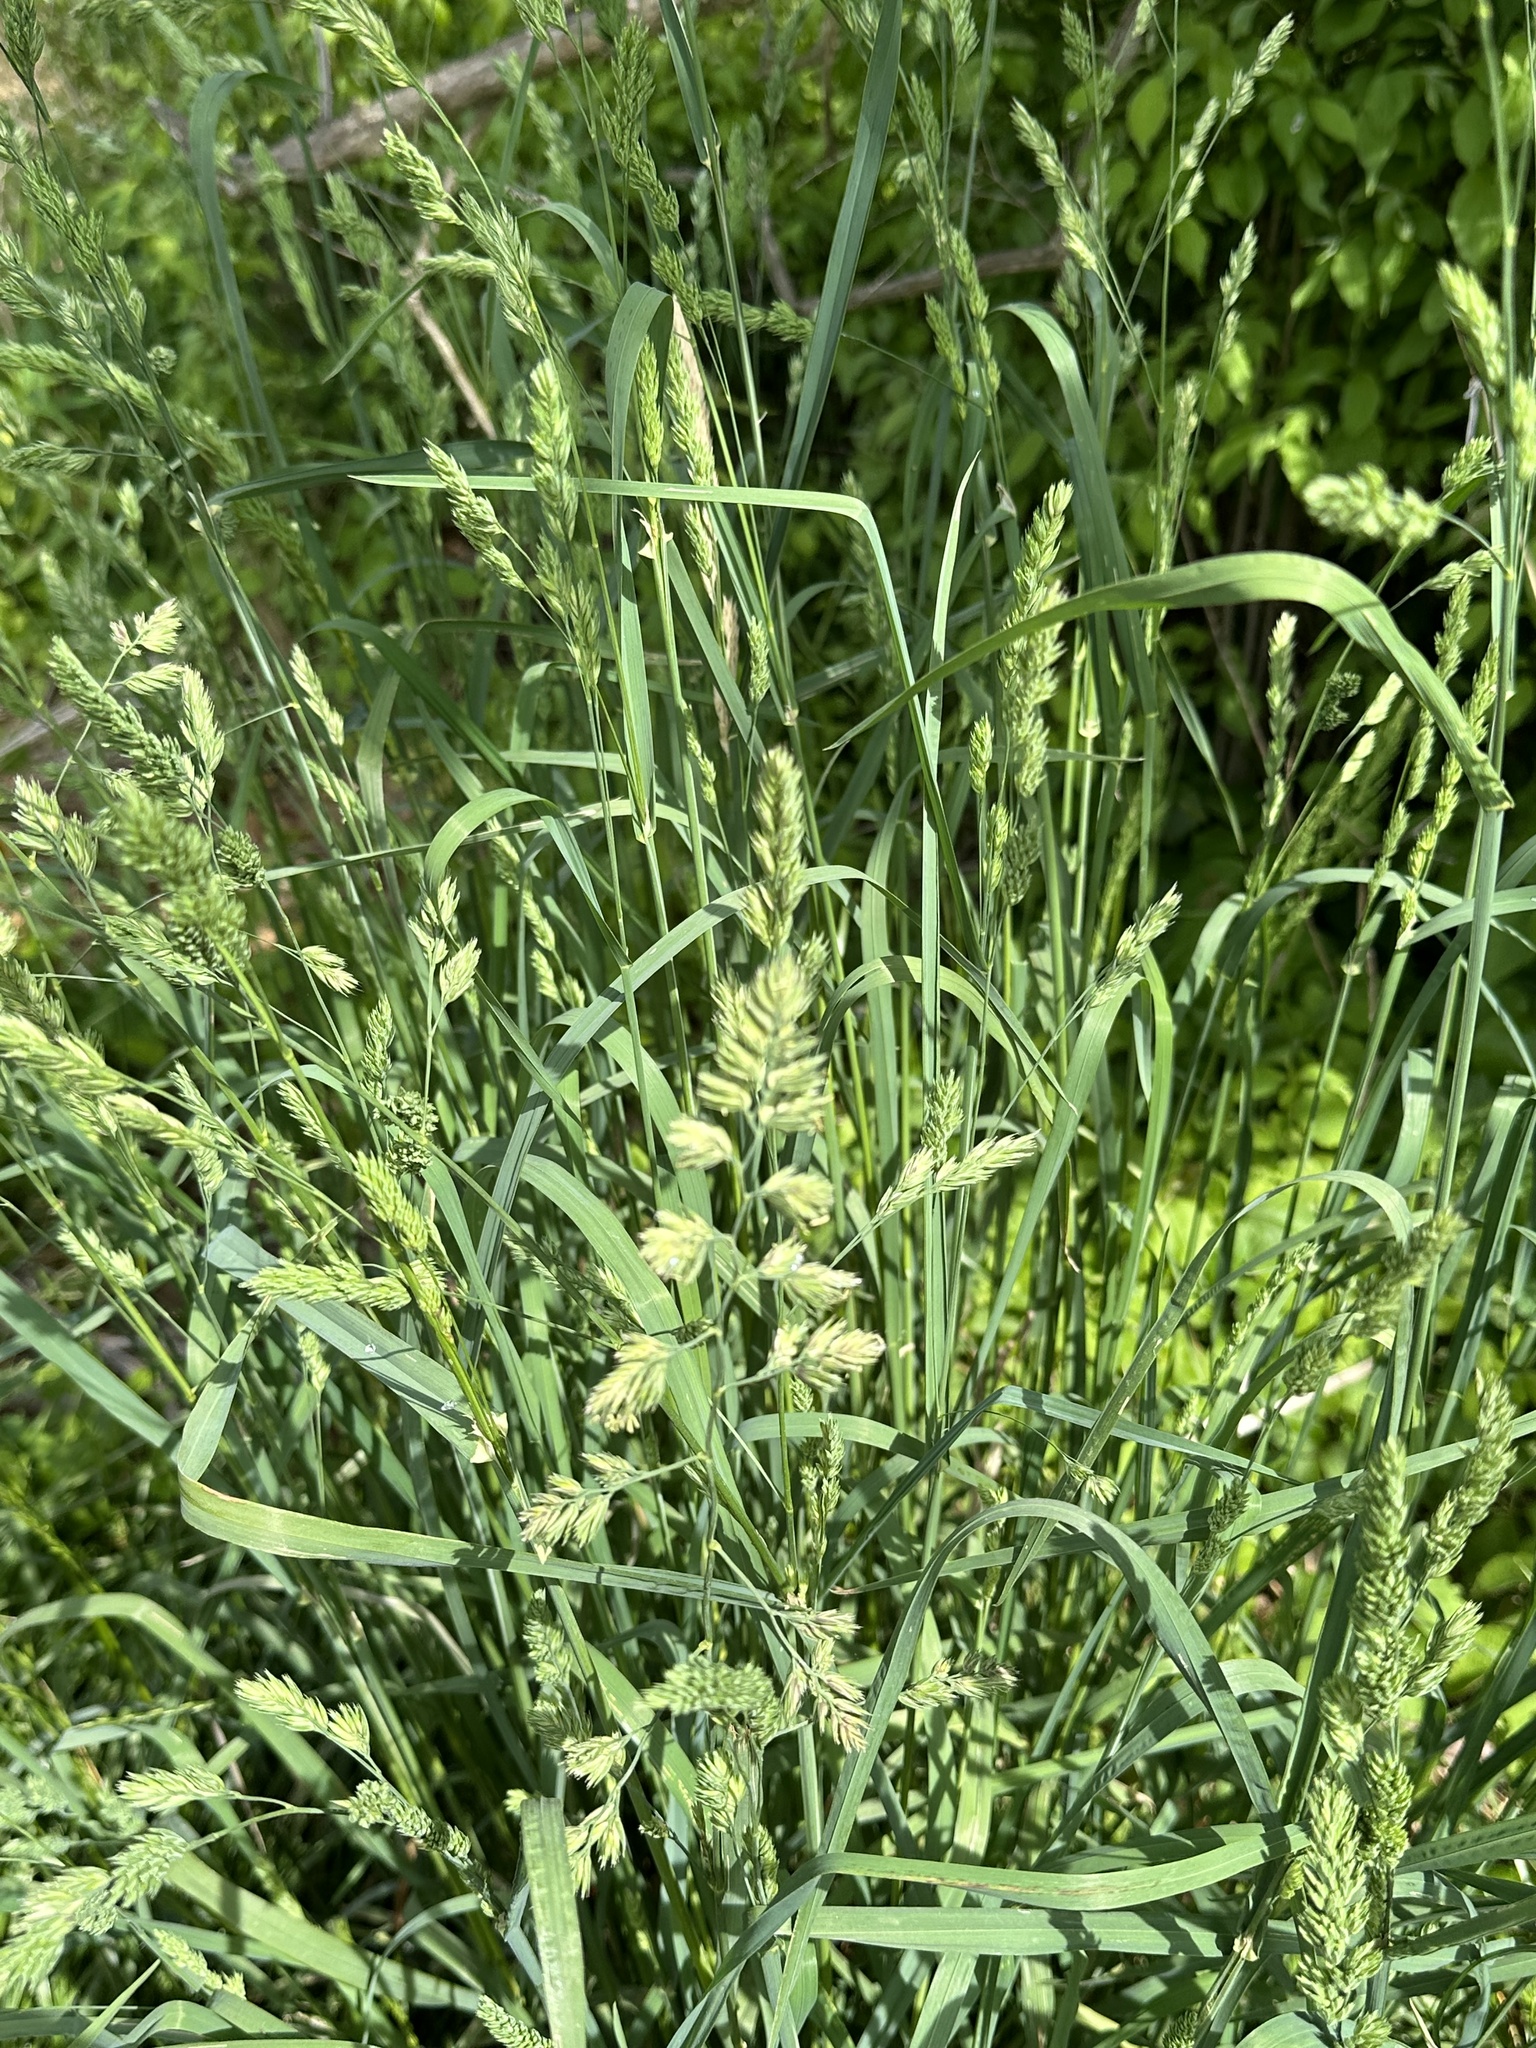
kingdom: Plantae
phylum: Tracheophyta
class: Liliopsida
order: Poales
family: Poaceae
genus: Dactylis
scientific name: Dactylis glomerata
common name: Orchardgrass
